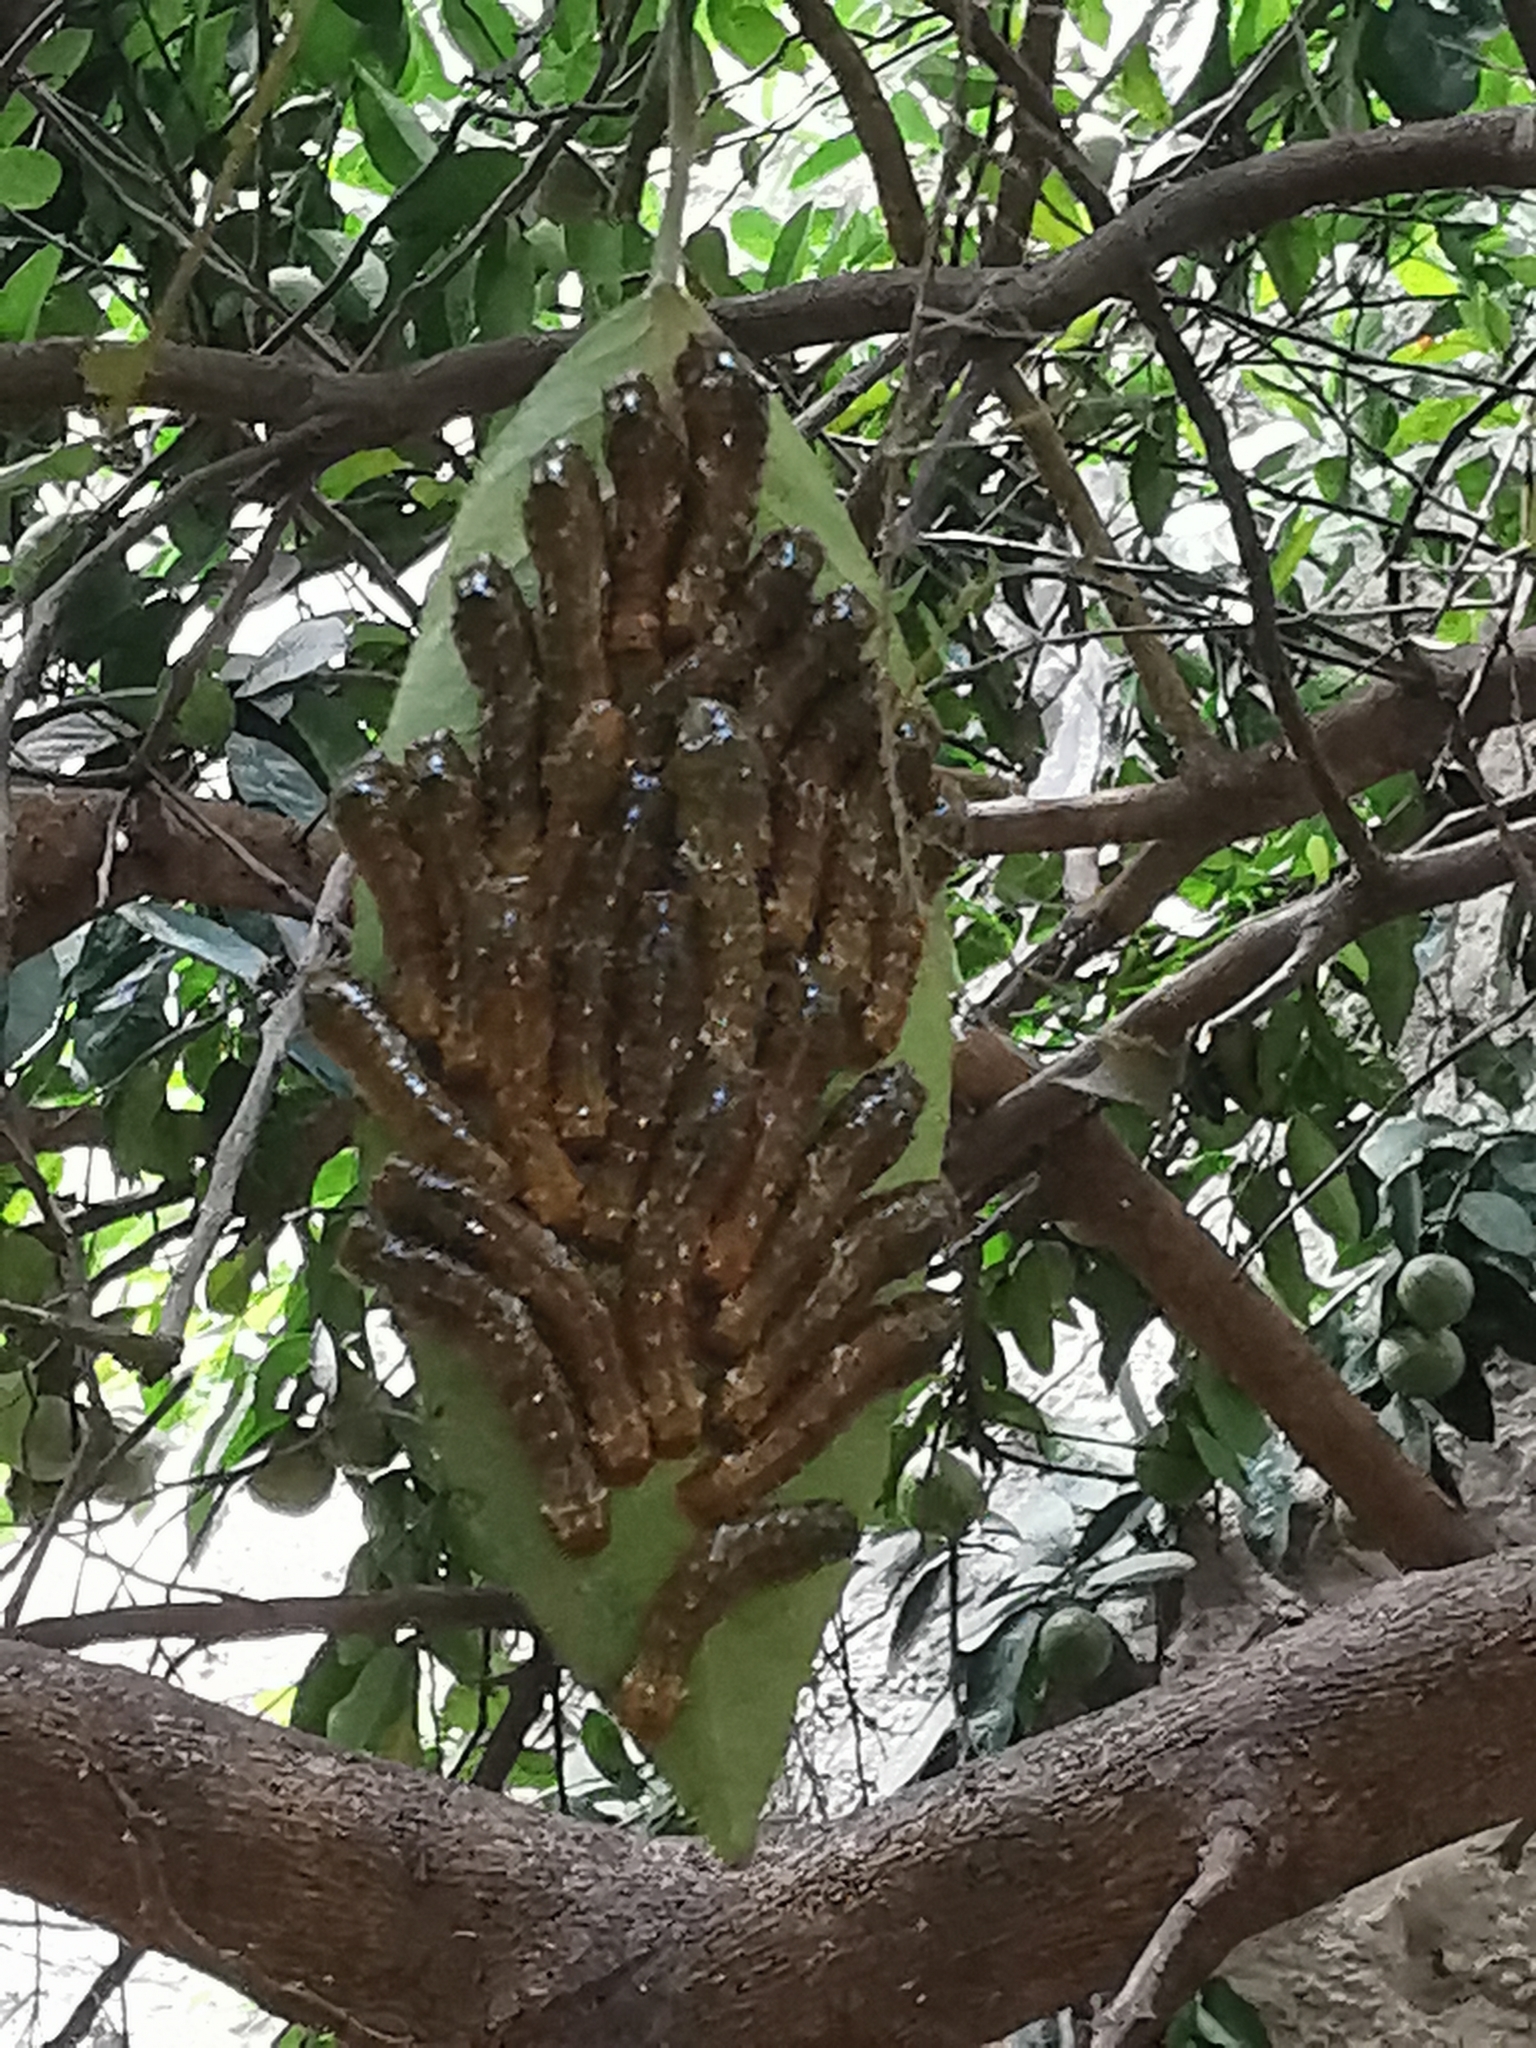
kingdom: Animalia
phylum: Arthropoda
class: Insecta
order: Lepidoptera
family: Papilionidae
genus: Papilio
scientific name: Papilio anchisiades
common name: Idaes swallowtail
